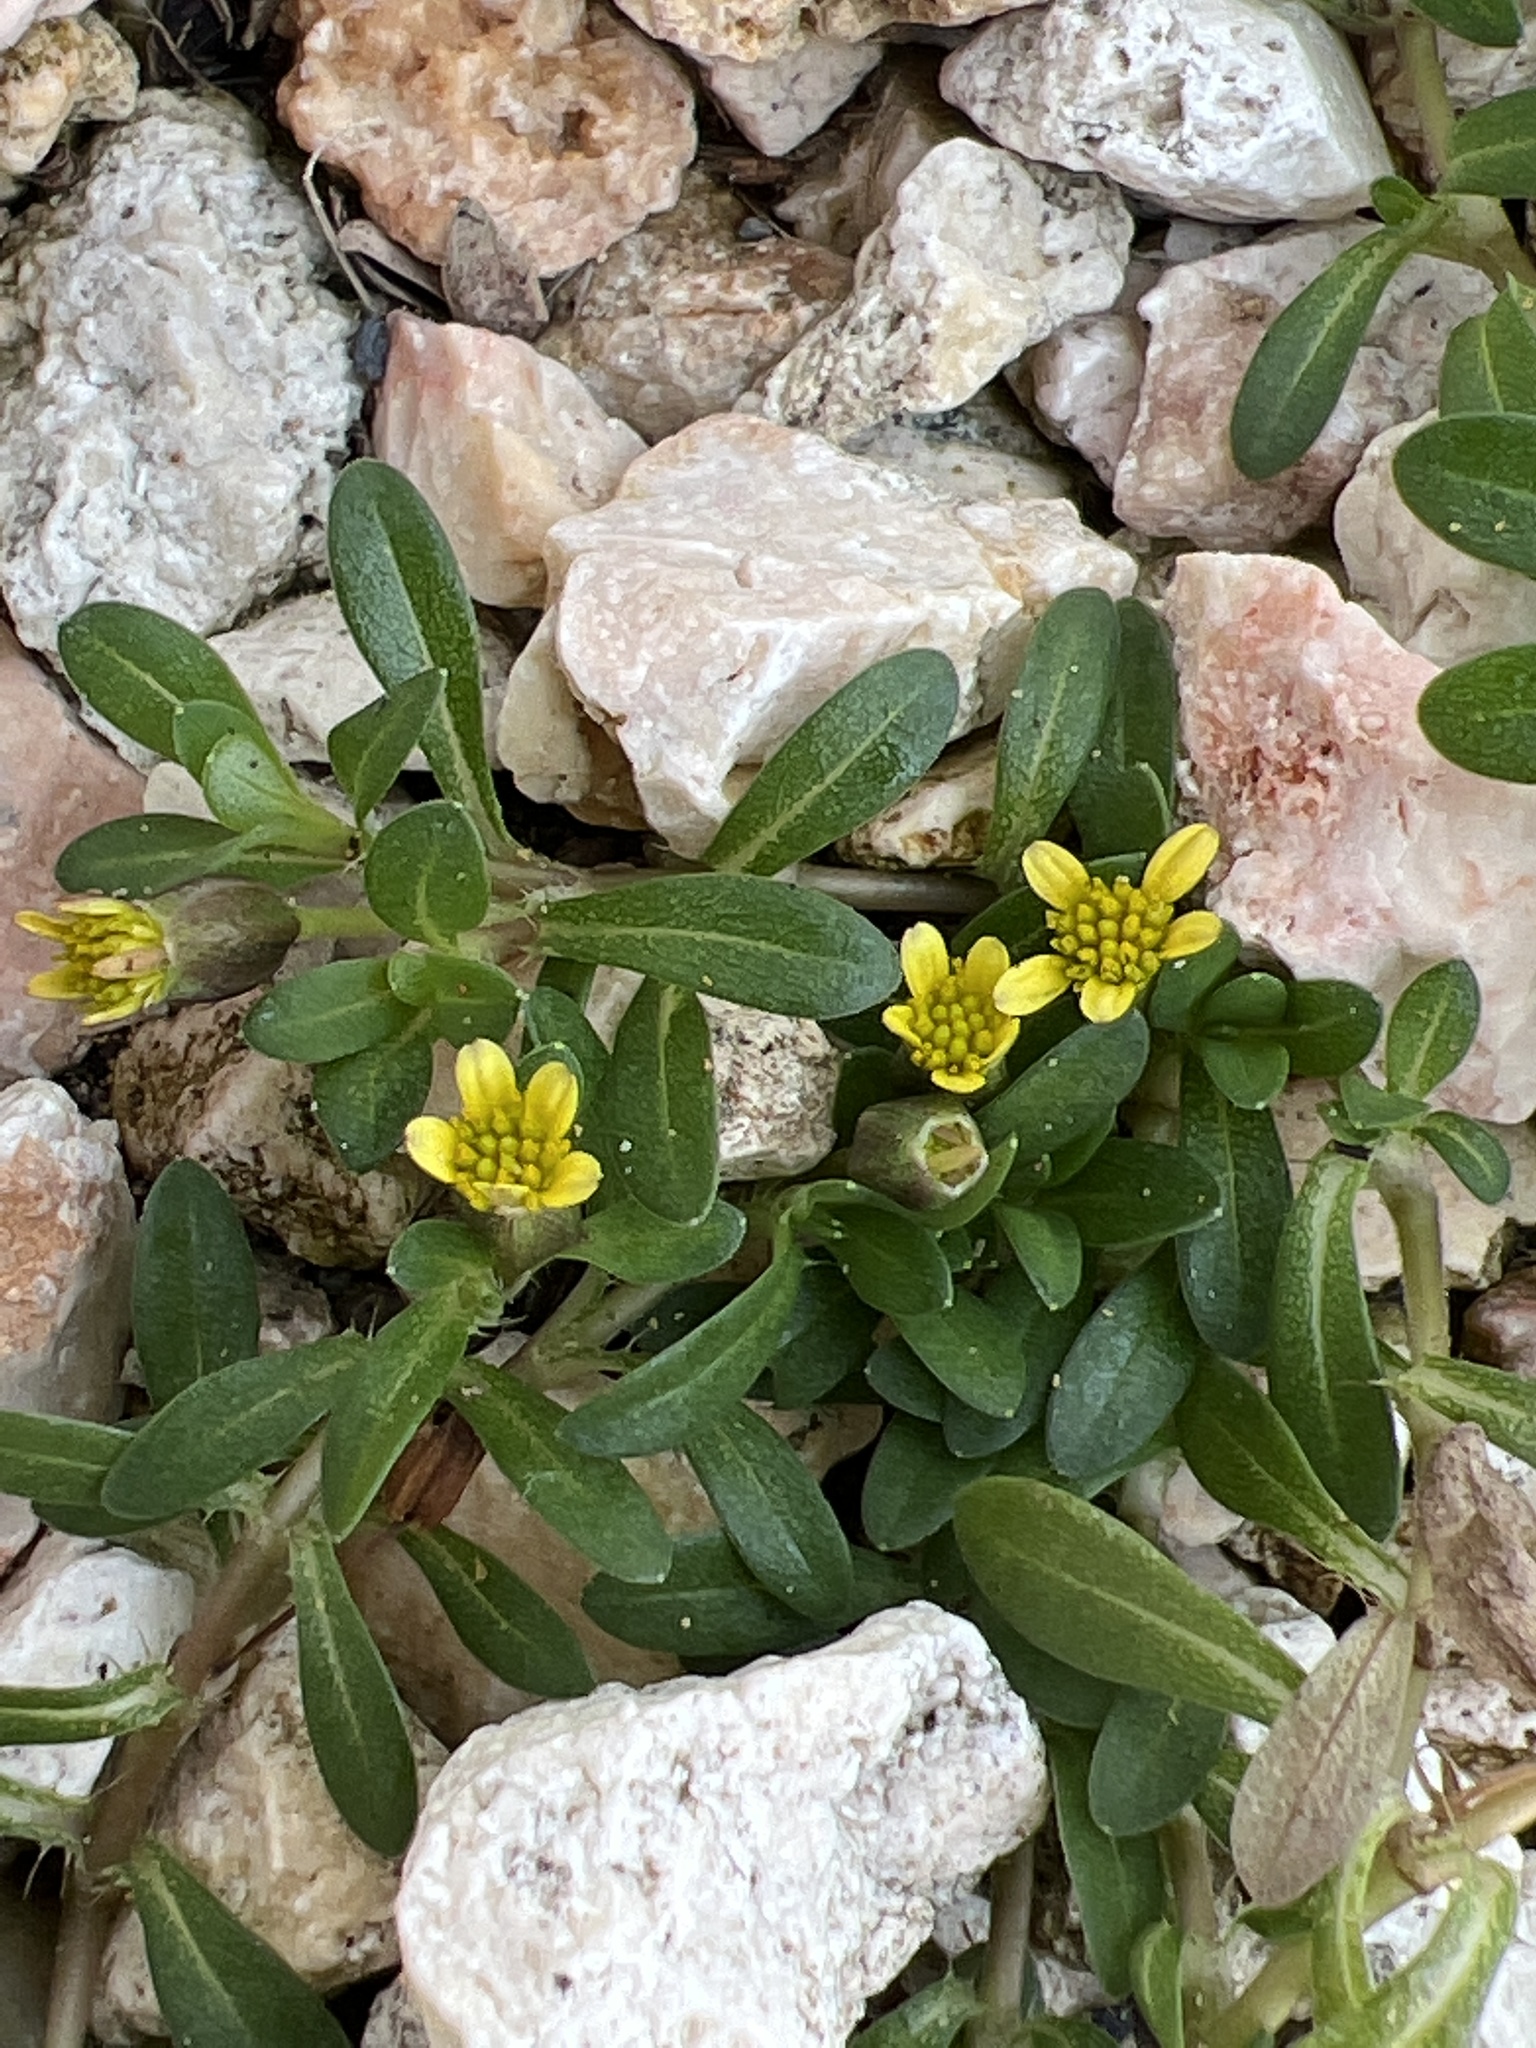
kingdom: Plantae
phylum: Tracheophyta
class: Magnoliopsida
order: Asterales
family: Asteraceae
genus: Pectis
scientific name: Pectis humifusa
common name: Yerba de san juan
